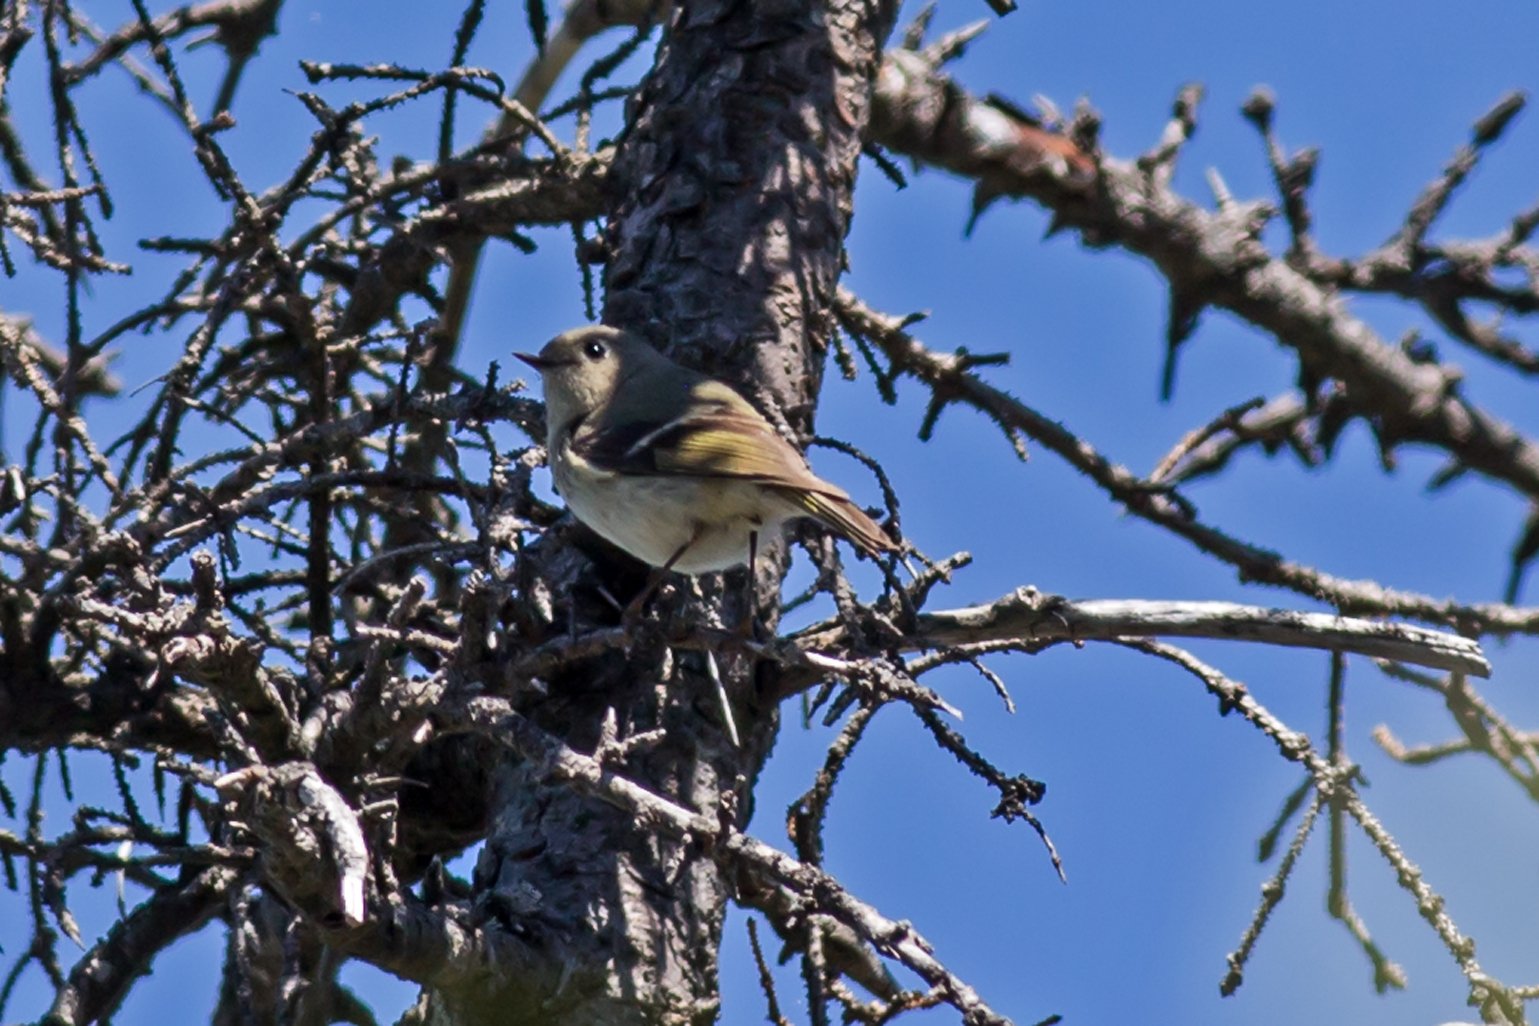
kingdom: Animalia
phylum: Chordata
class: Aves
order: Passeriformes
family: Regulidae
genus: Regulus
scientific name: Regulus calendula
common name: Ruby-crowned kinglet
